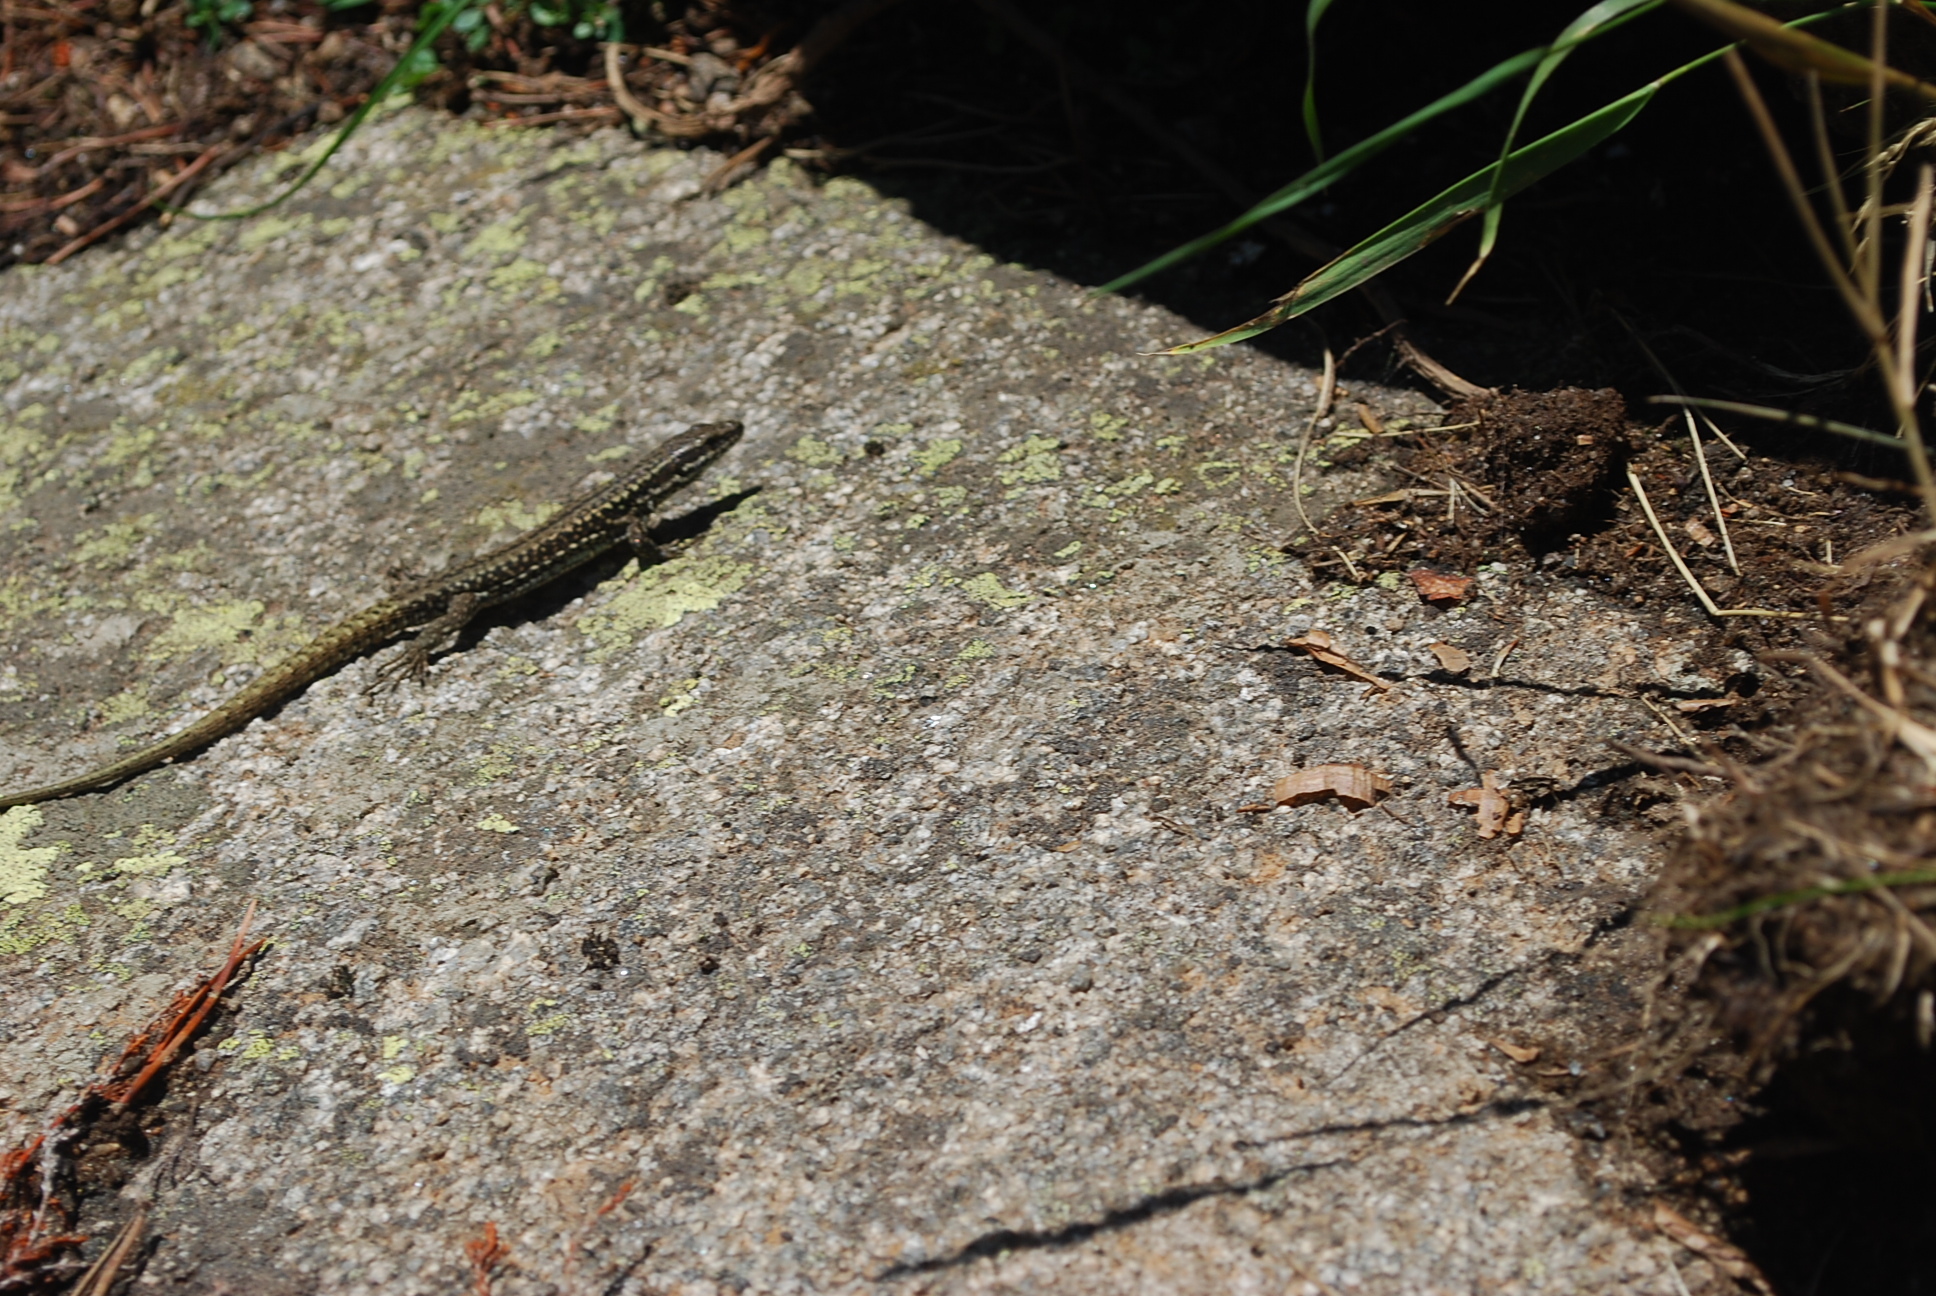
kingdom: Animalia
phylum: Chordata
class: Squamata
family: Lacertidae
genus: Podarcis
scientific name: Podarcis muralis
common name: Common wall lizard
